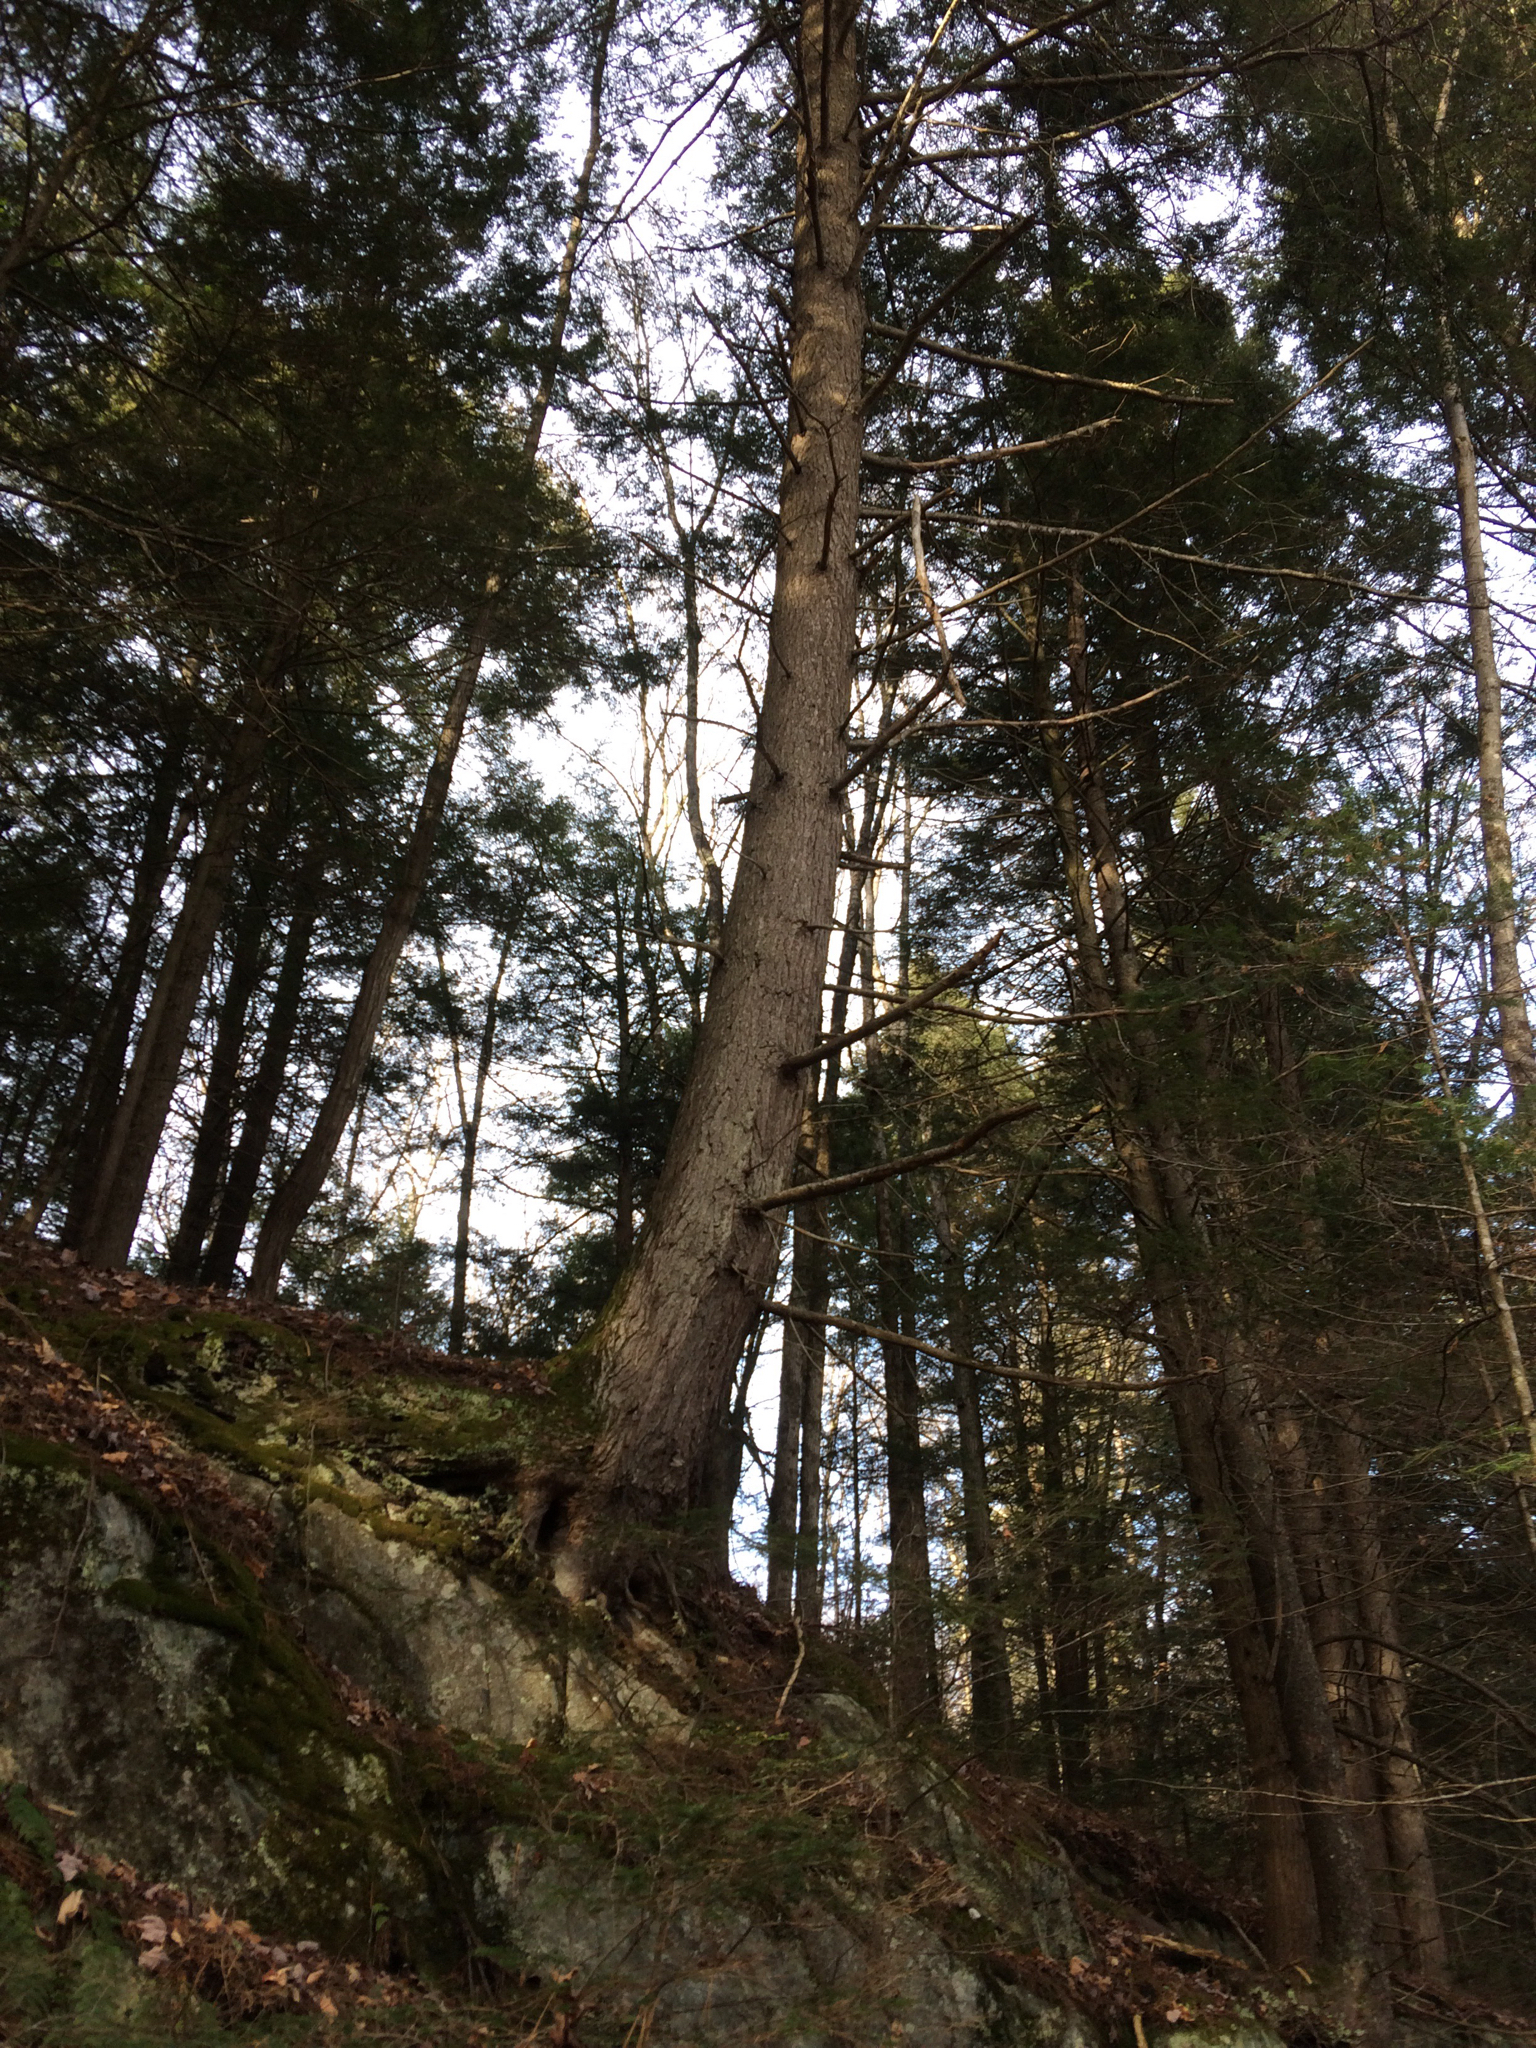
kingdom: Plantae
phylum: Tracheophyta
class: Pinopsida
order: Pinales
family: Pinaceae
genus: Tsuga
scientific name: Tsuga canadensis
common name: Eastern hemlock
